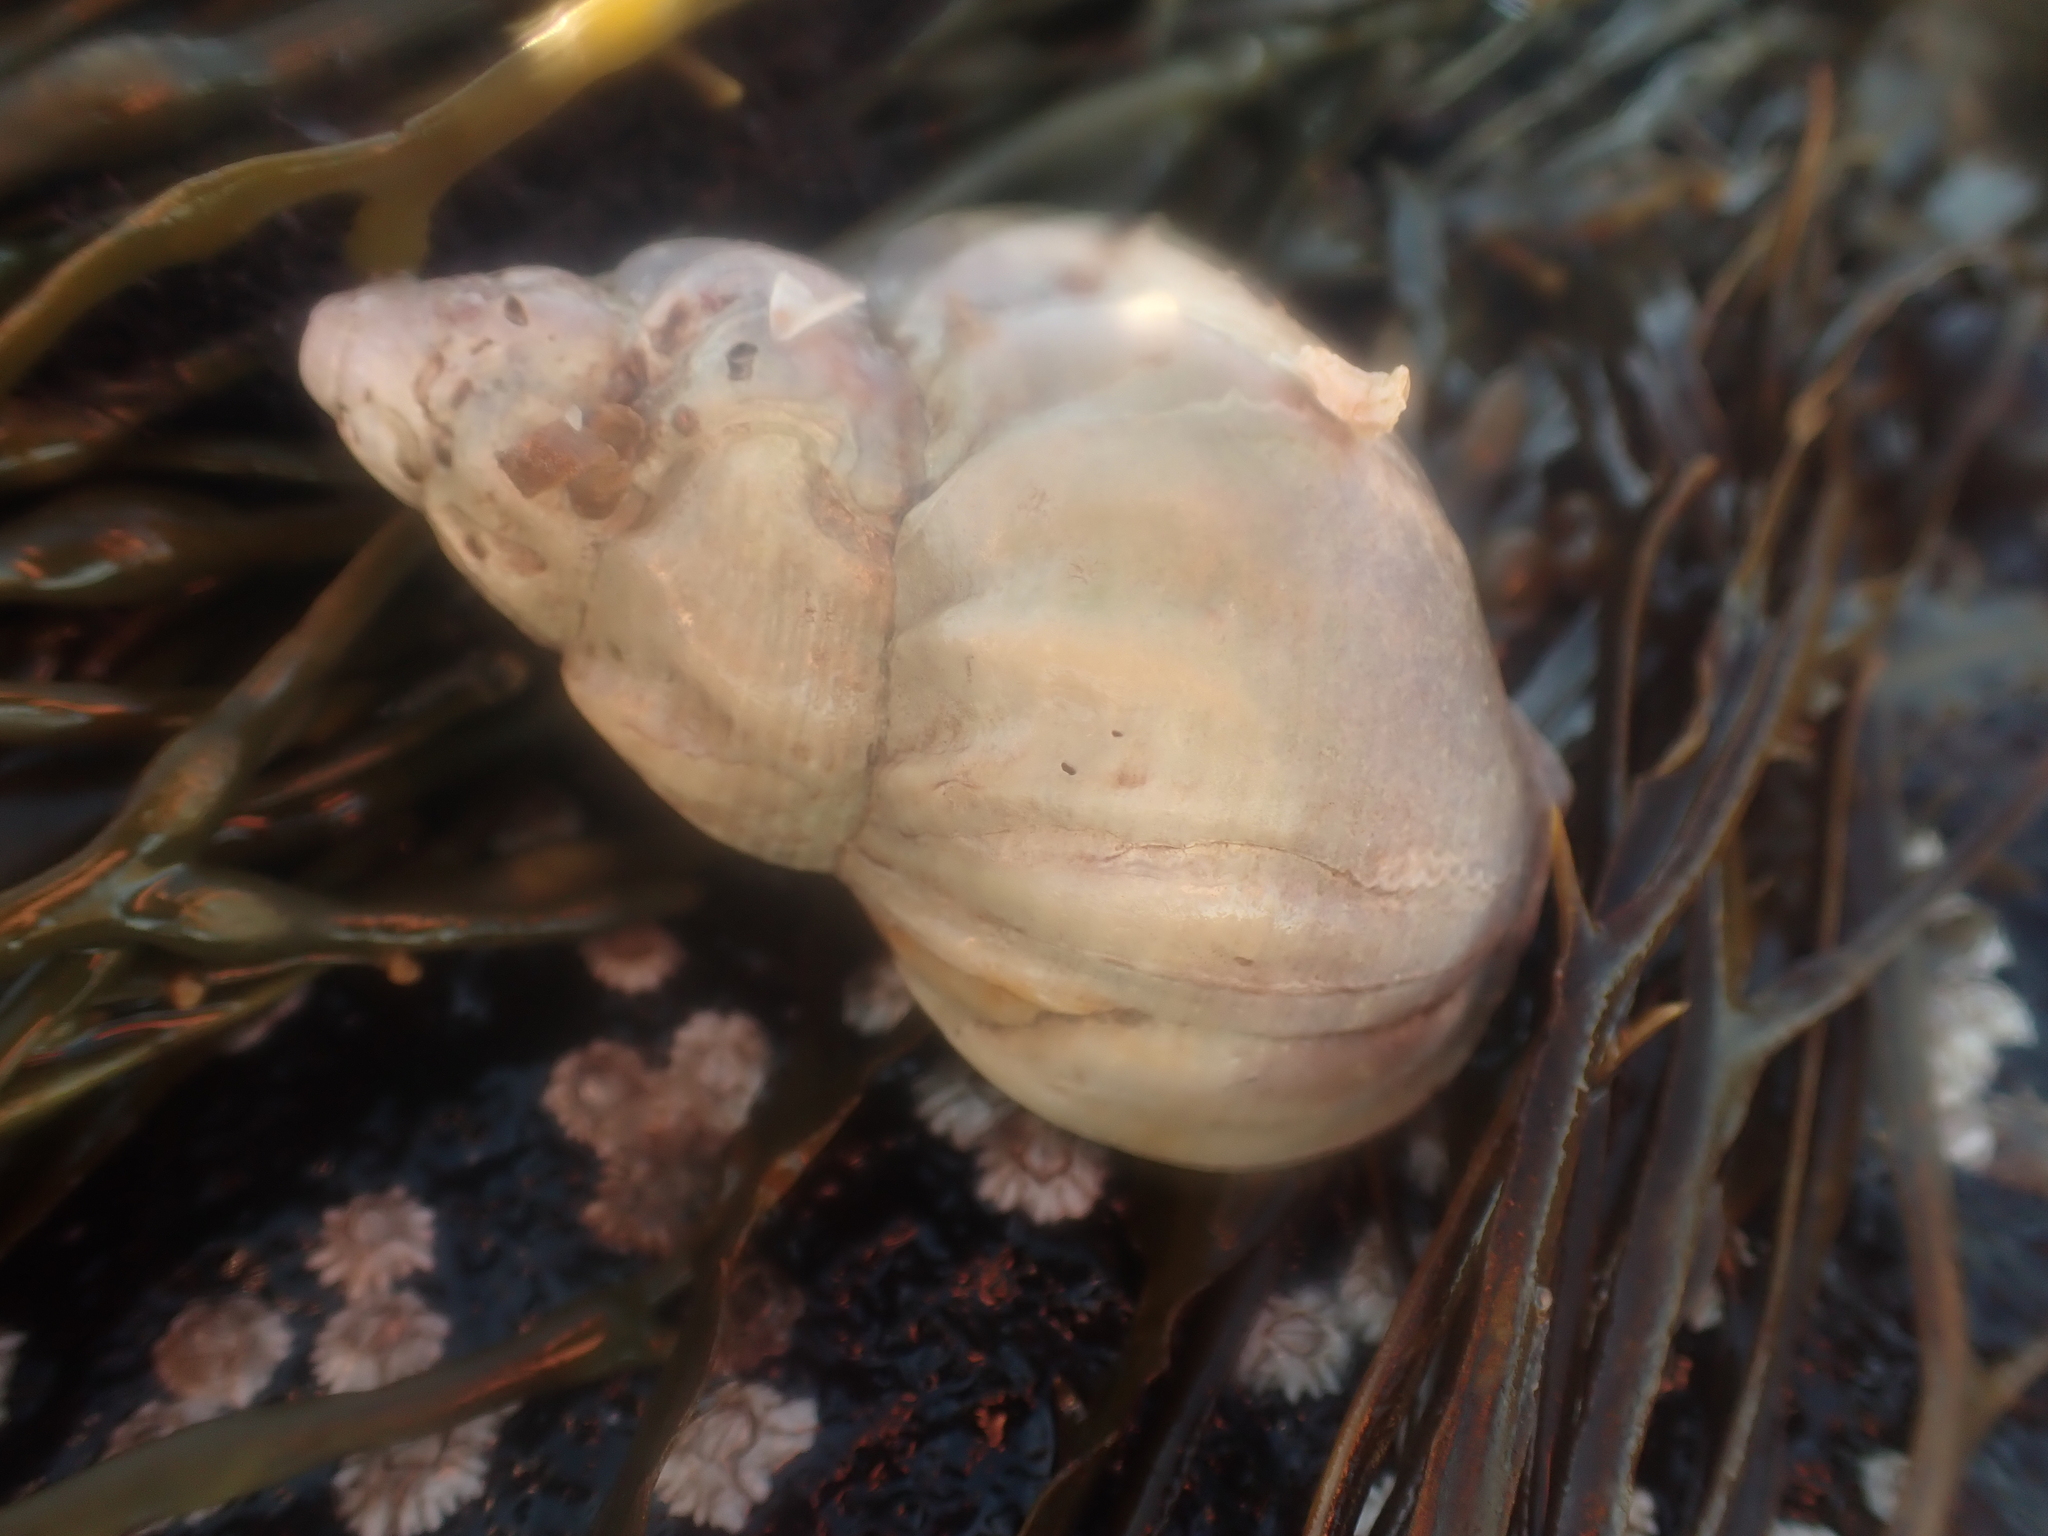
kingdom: Animalia
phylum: Mollusca
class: Gastropoda
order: Neogastropoda
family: Buccinidae
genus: Buccinum
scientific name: Buccinum undatum
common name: Common whelk
